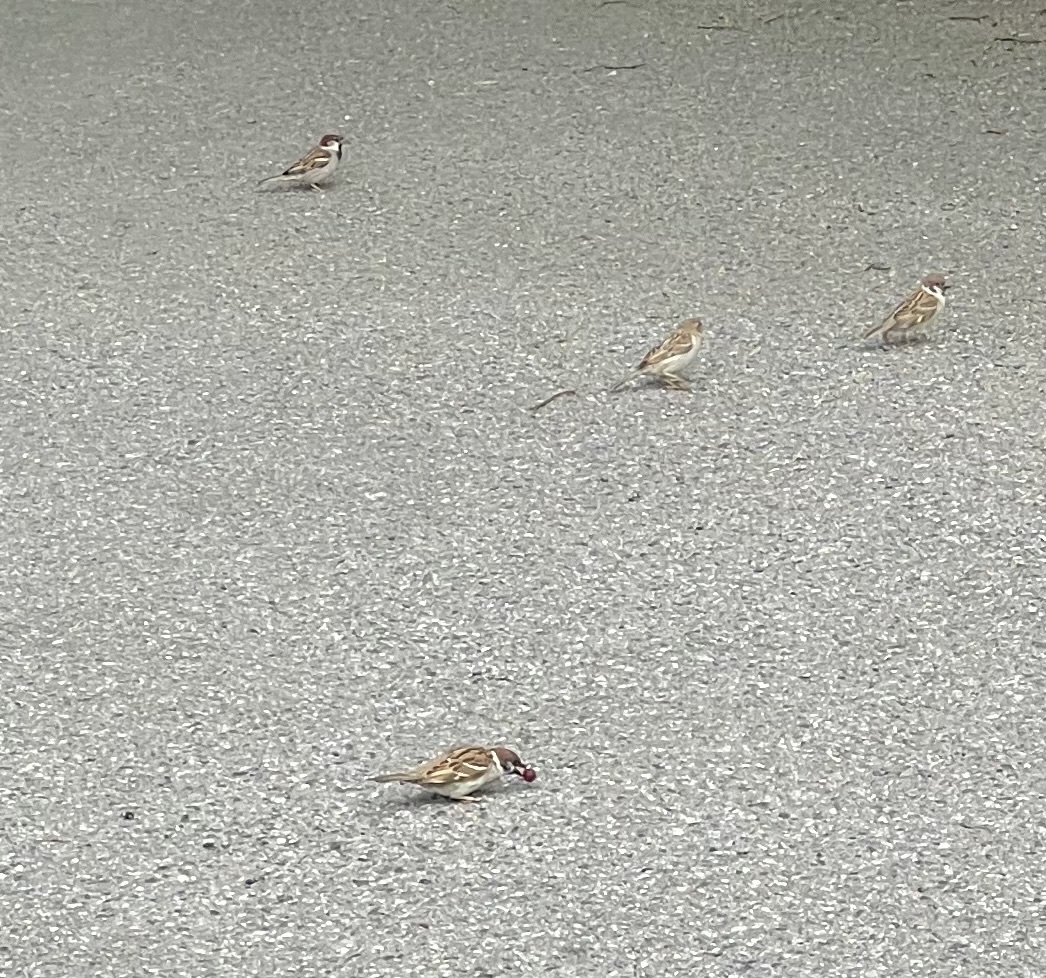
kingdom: Animalia
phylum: Chordata
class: Aves
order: Passeriformes
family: Passeridae
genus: Passer
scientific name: Passer montanus
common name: Eurasian tree sparrow
